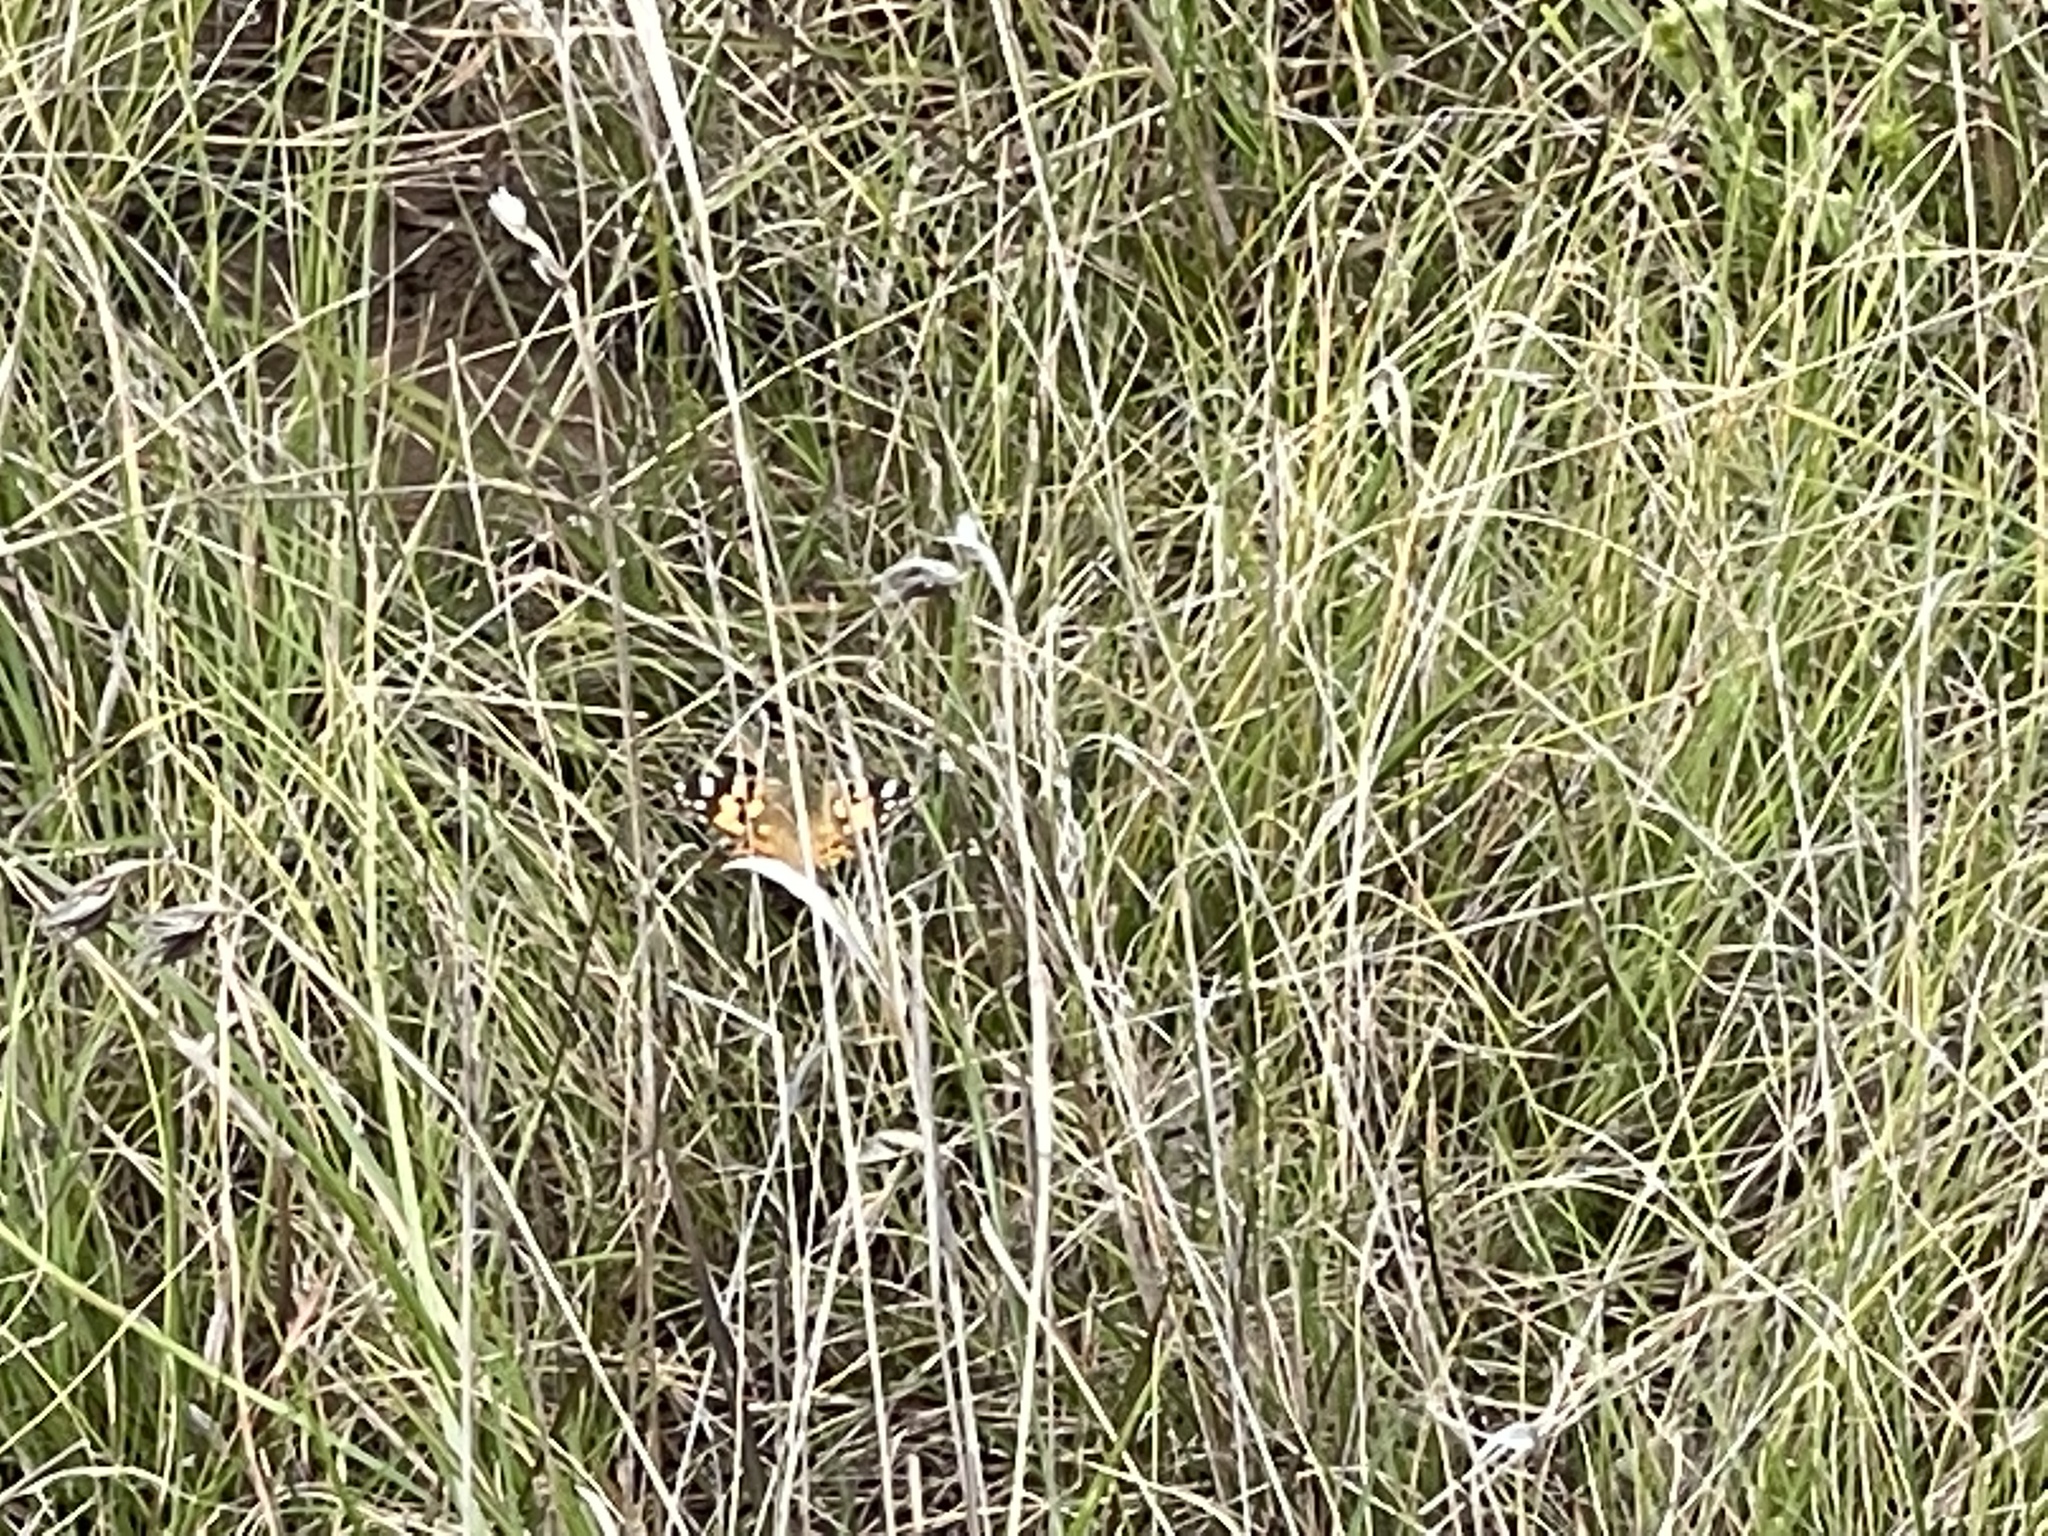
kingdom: Animalia
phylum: Arthropoda
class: Insecta
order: Lepidoptera
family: Nymphalidae
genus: Vanessa
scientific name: Vanessa kershawi
